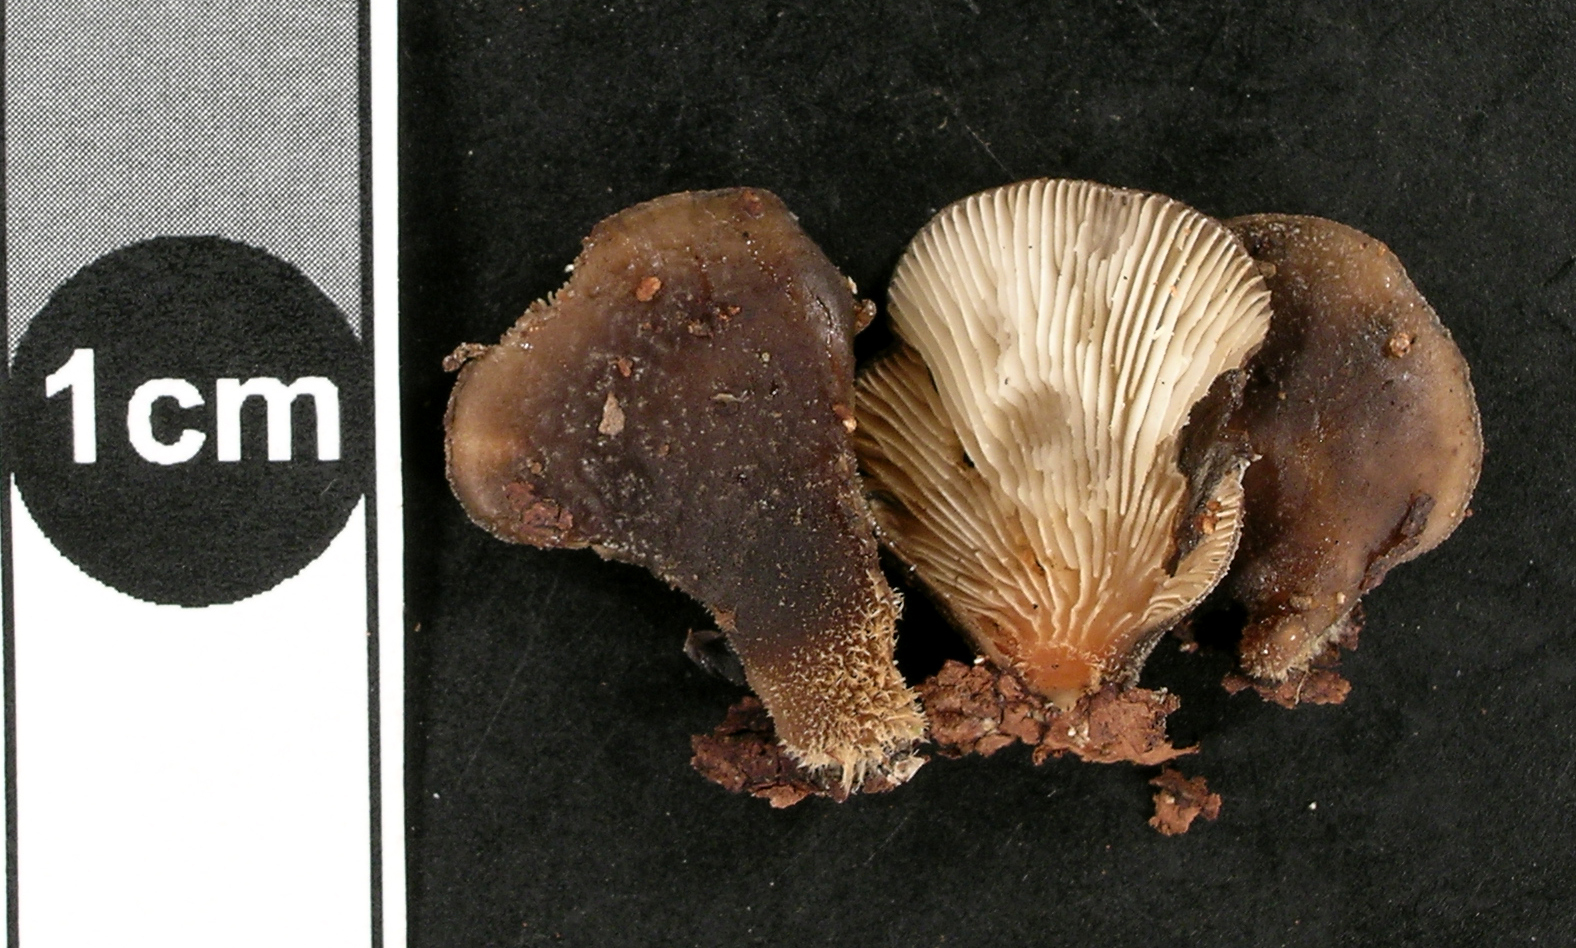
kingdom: Fungi
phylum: Basidiomycota
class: Agaricomycetes
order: Agaricales
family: Pleurotaceae
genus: Hohenbuehelia
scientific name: Hohenbuehelia nothofaginea
